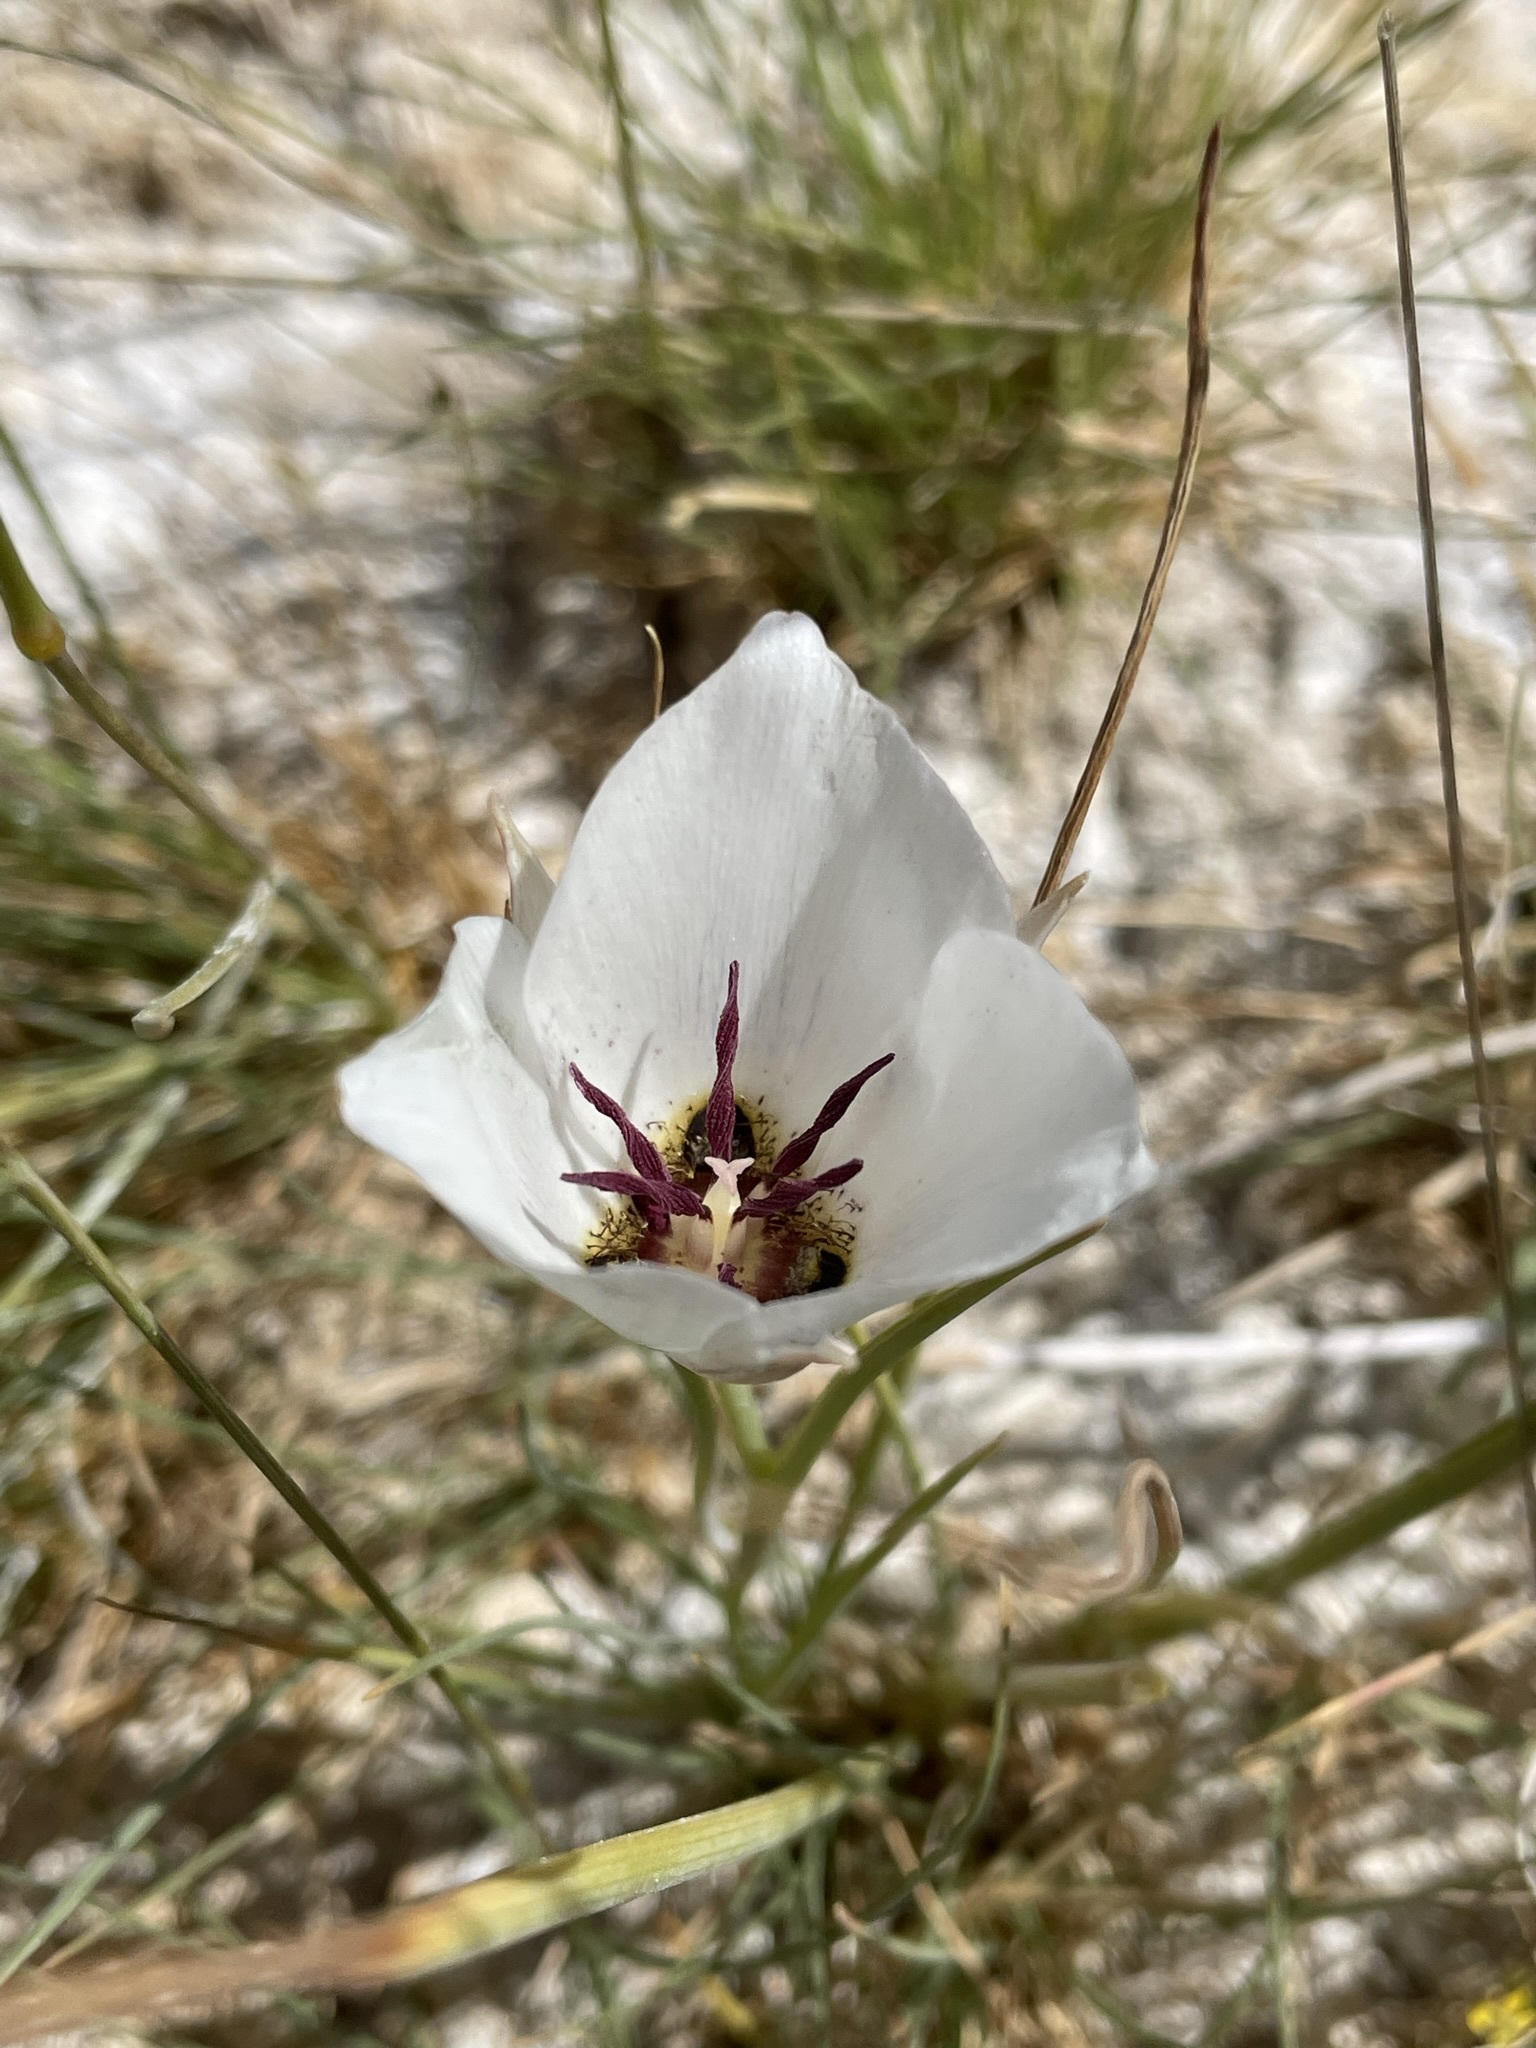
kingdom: Plantae
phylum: Tracheophyta
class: Liliopsida
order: Liliales
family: Liliaceae
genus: Calochortus
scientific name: Calochortus excavatus
